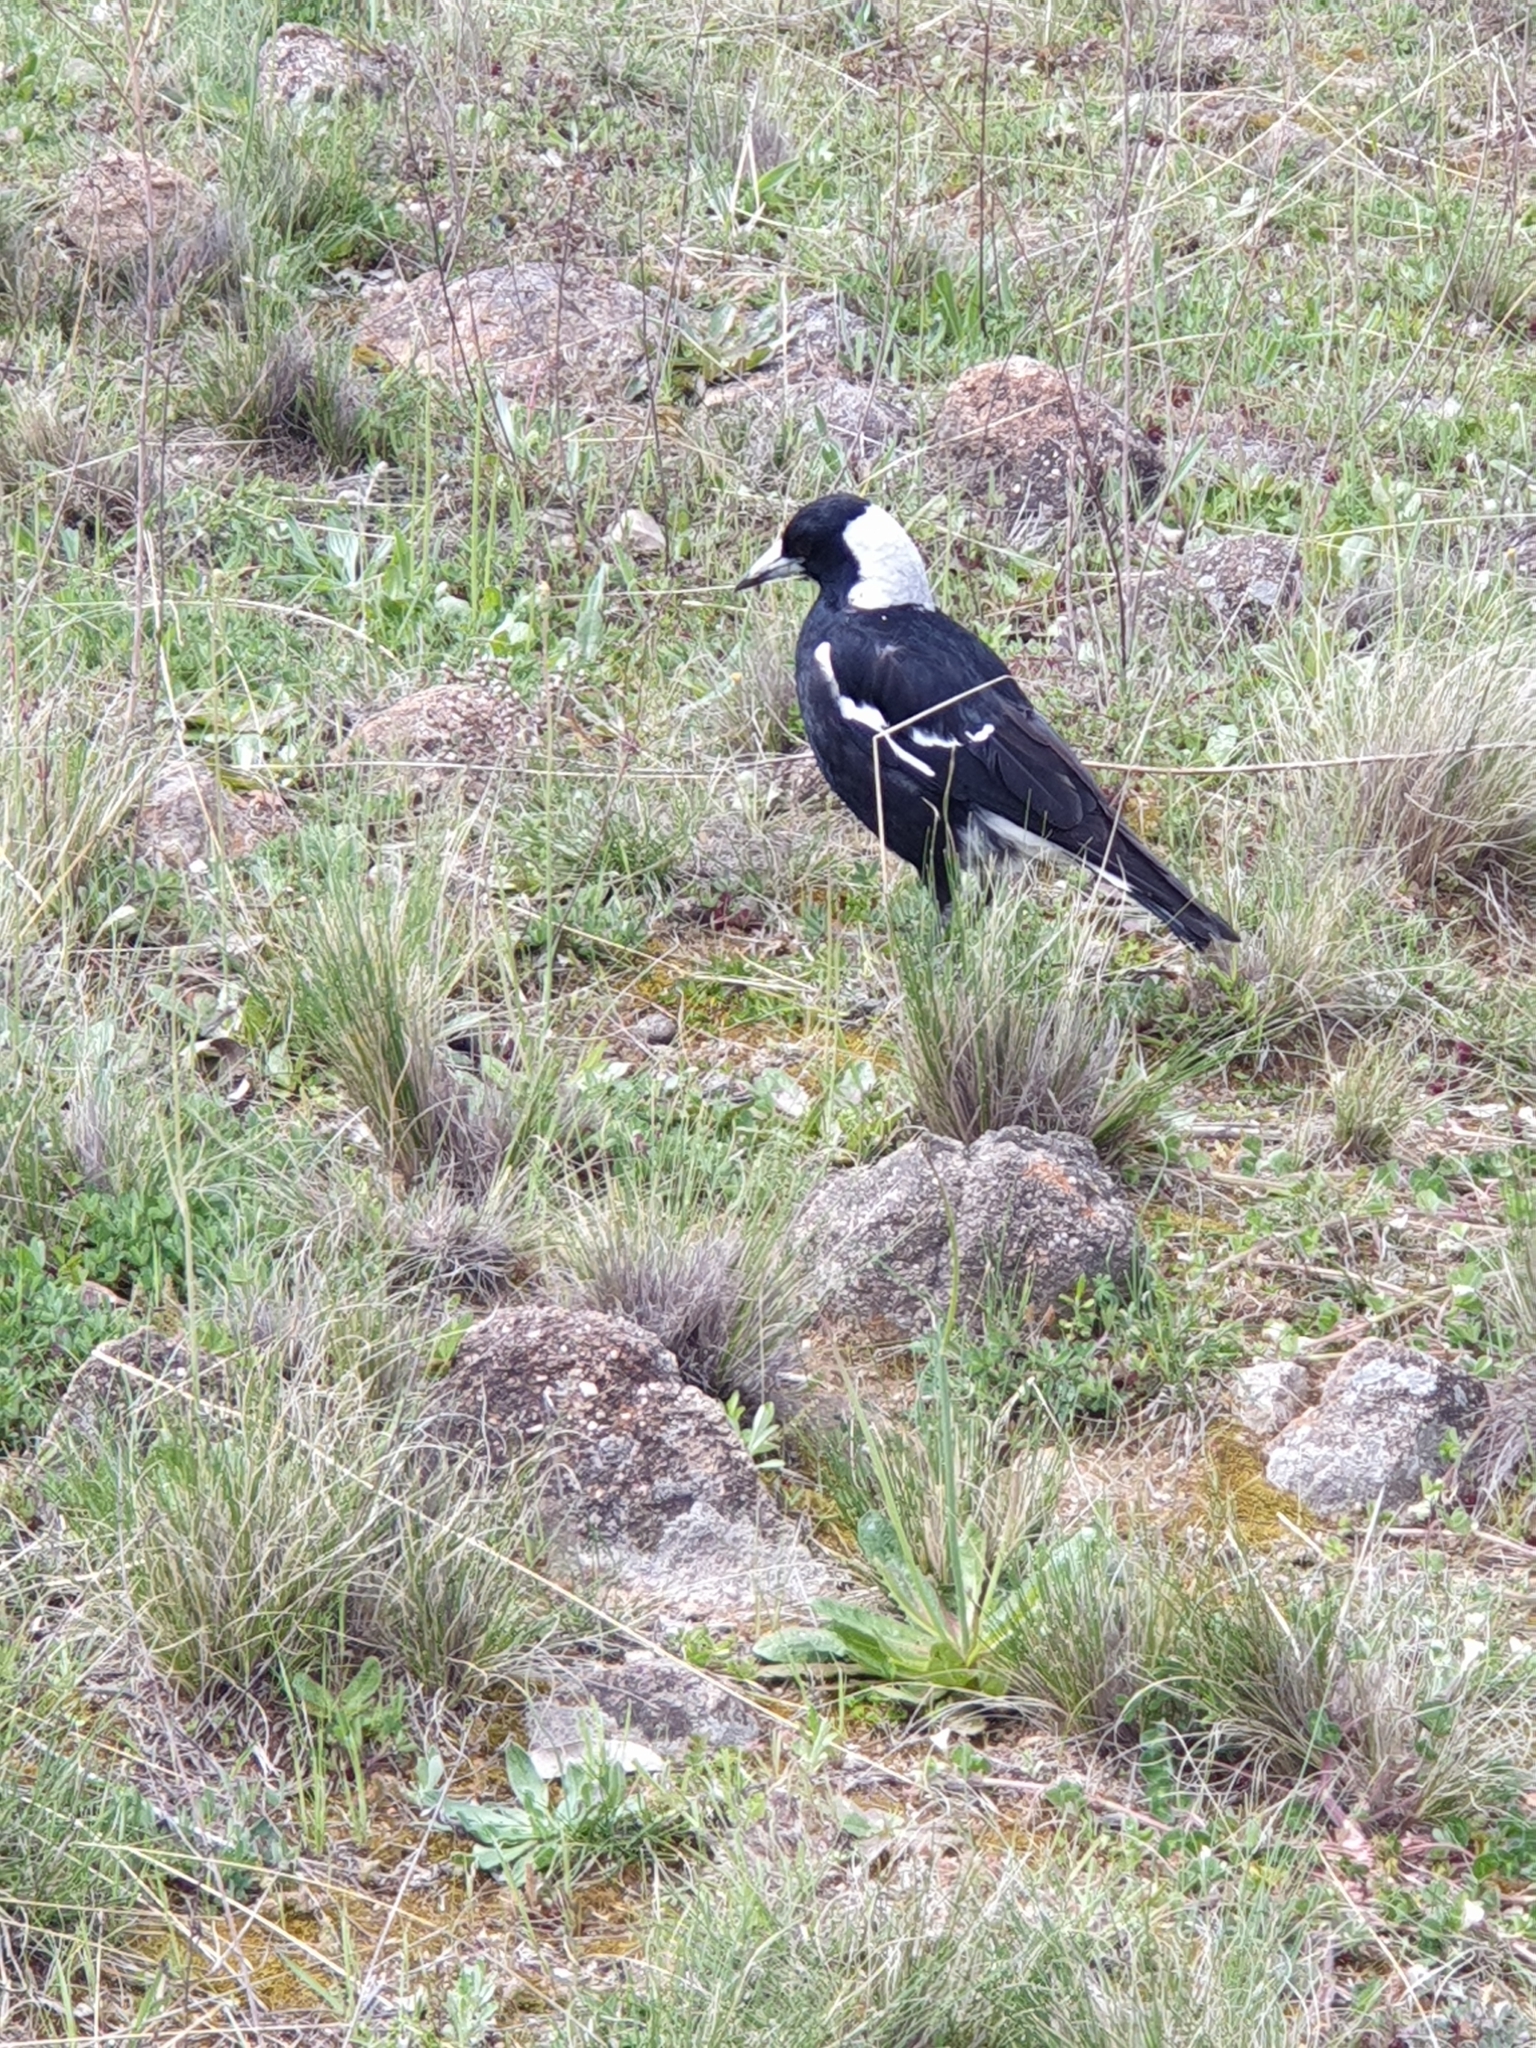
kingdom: Animalia
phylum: Chordata
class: Aves
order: Passeriformes
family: Cracticidae
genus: Gymnorhina
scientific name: Gymnorhina tibicen
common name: Australian magpie
